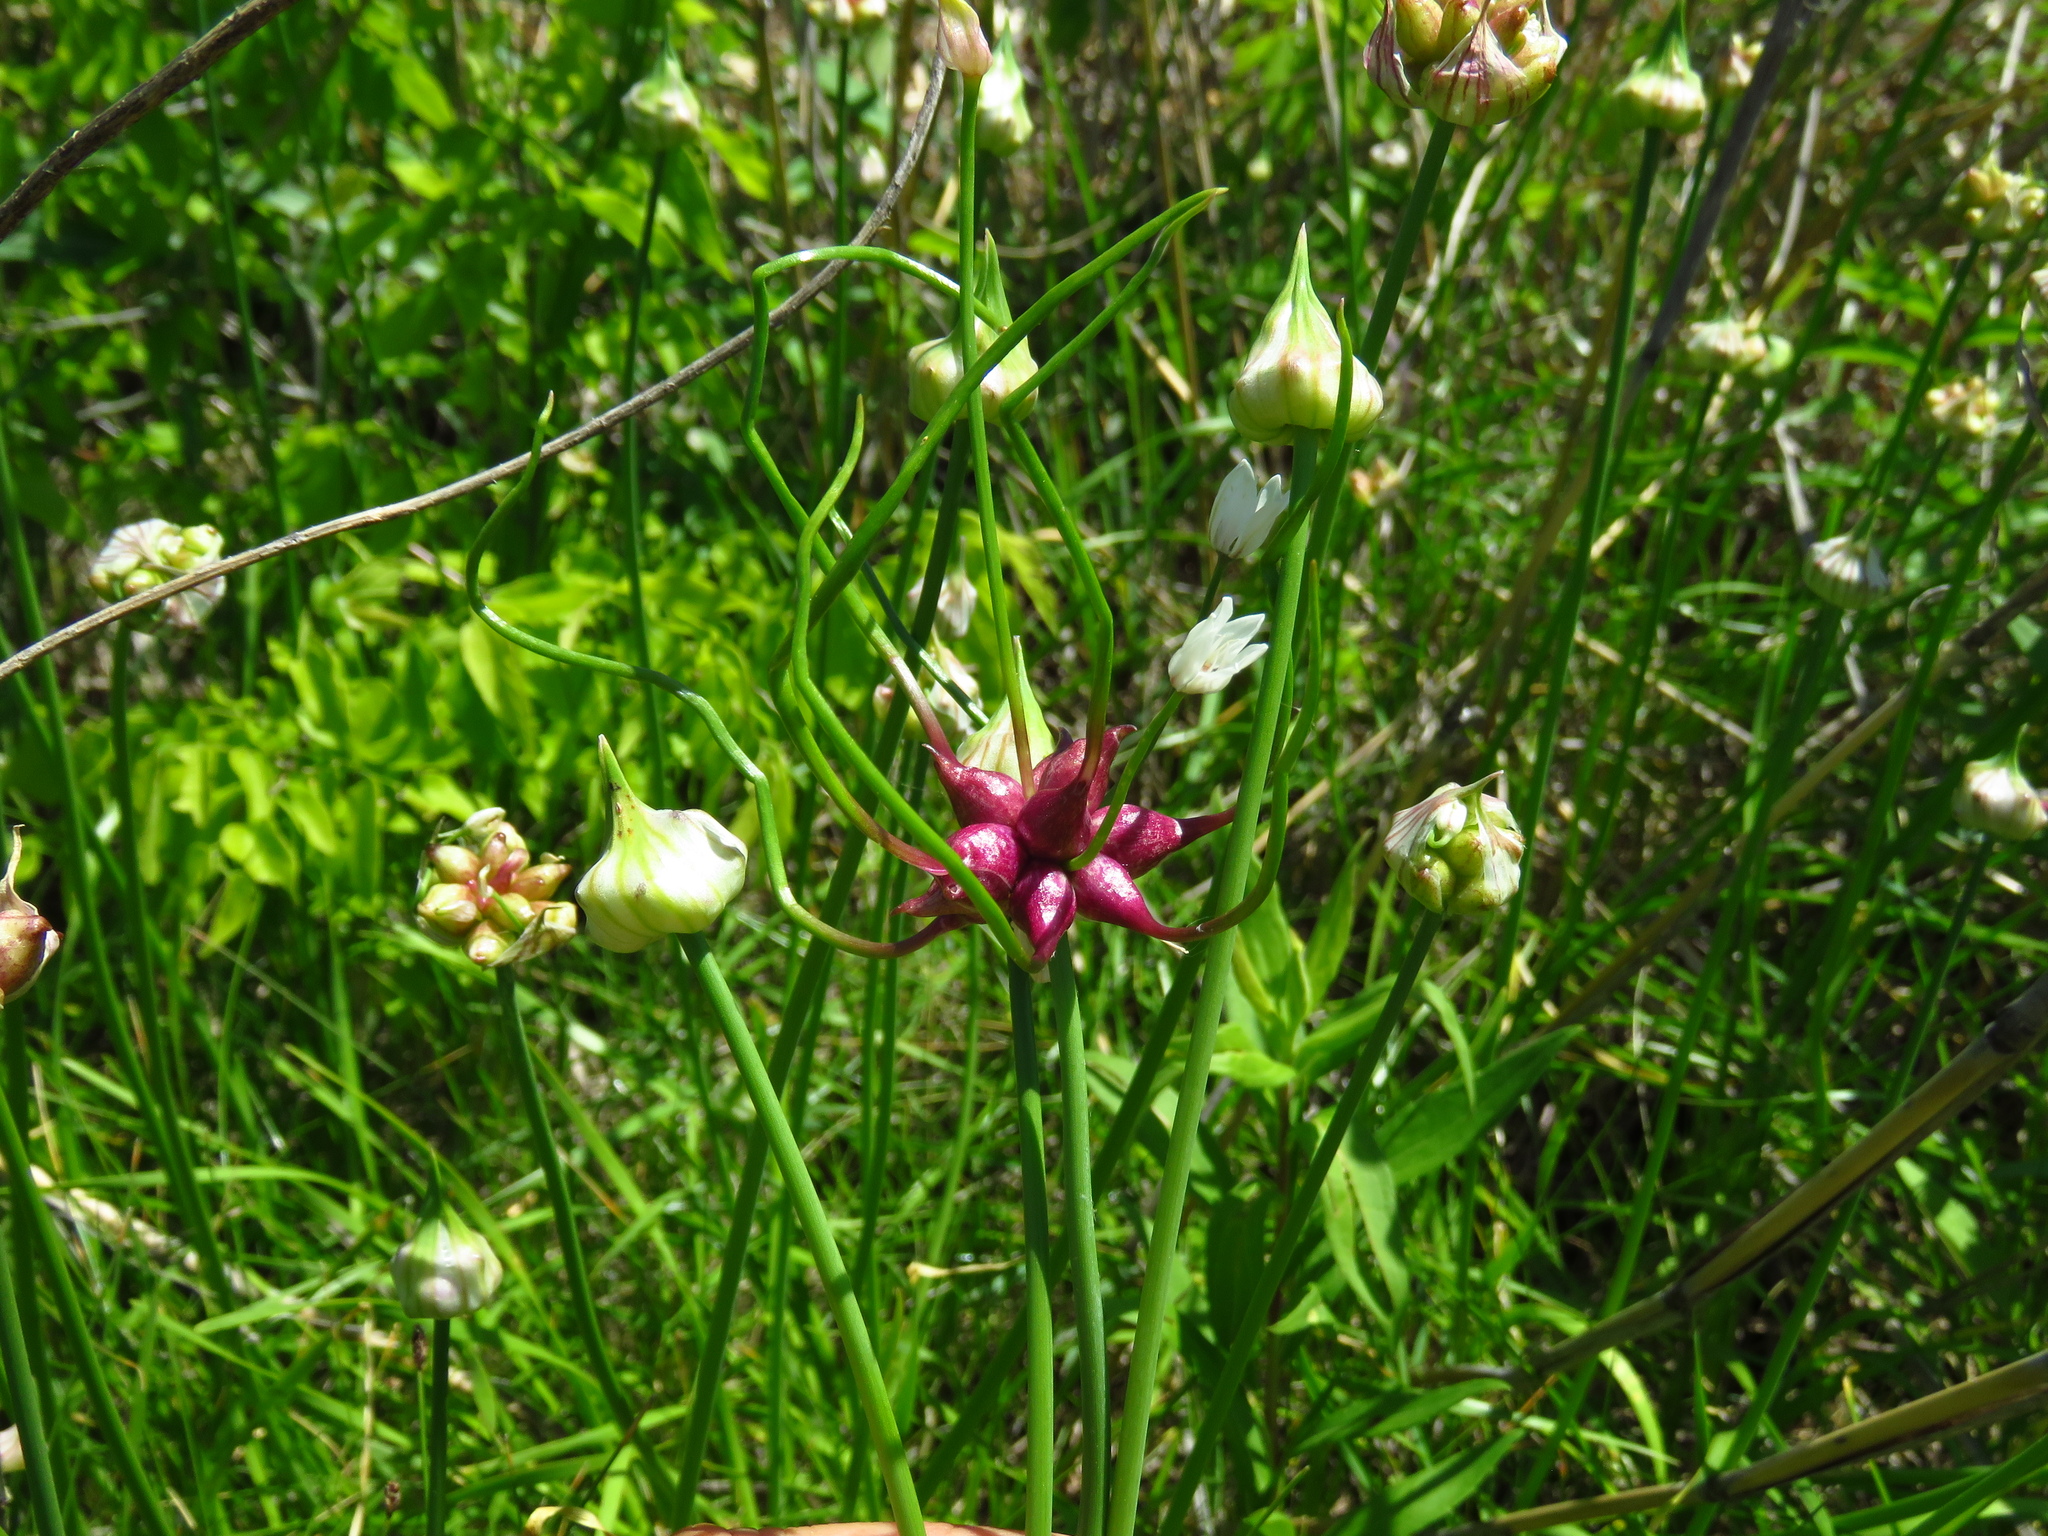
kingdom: Plantae
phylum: Tracheophyta
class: Liliopsida
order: Asparagales
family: Amaryllidaceae
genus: Allium
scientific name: Allium canadense
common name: Meadow garlic
